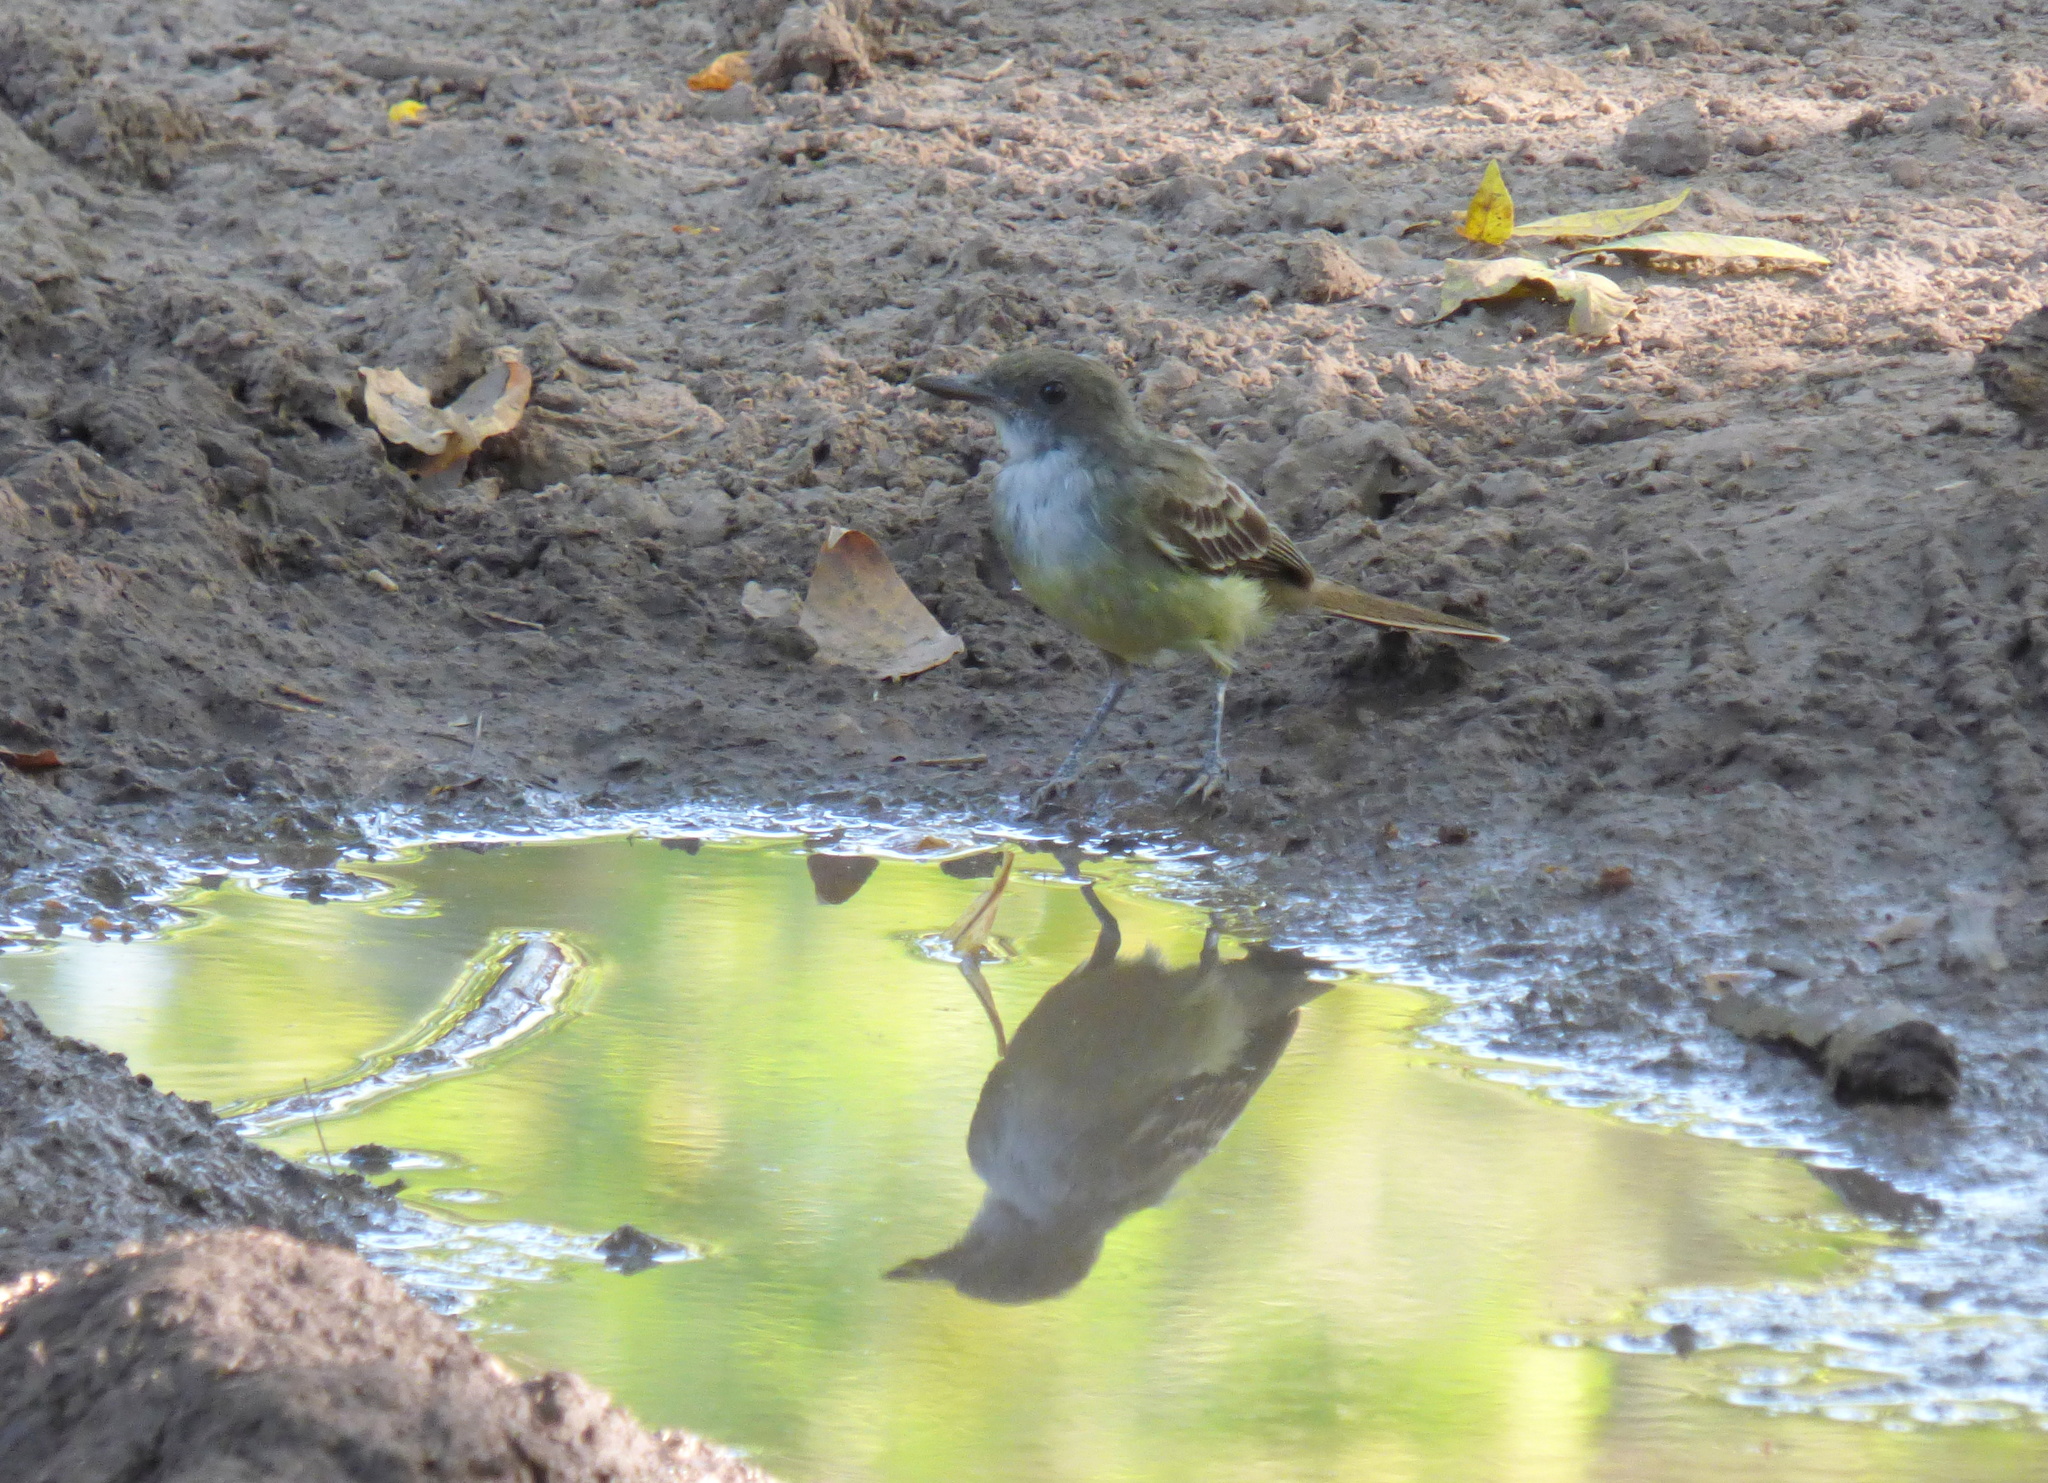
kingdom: Animalia
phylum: Chordata
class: Aves
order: Passeriformes
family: Tyrannidae
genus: Myiarchus
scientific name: Myiarchus swainsoni
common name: Swainson's flycatcher
